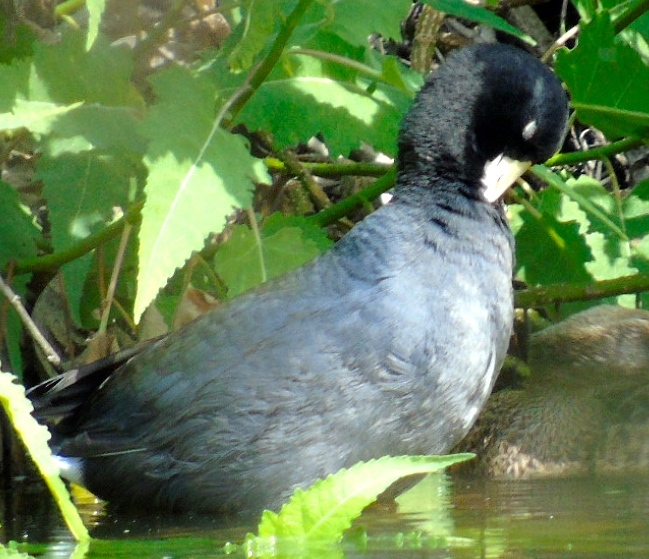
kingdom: Animalia
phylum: Chordata
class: Aves
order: Gruiformes
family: Rallidae
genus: Fulica
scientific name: Fulica americana
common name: American coot
